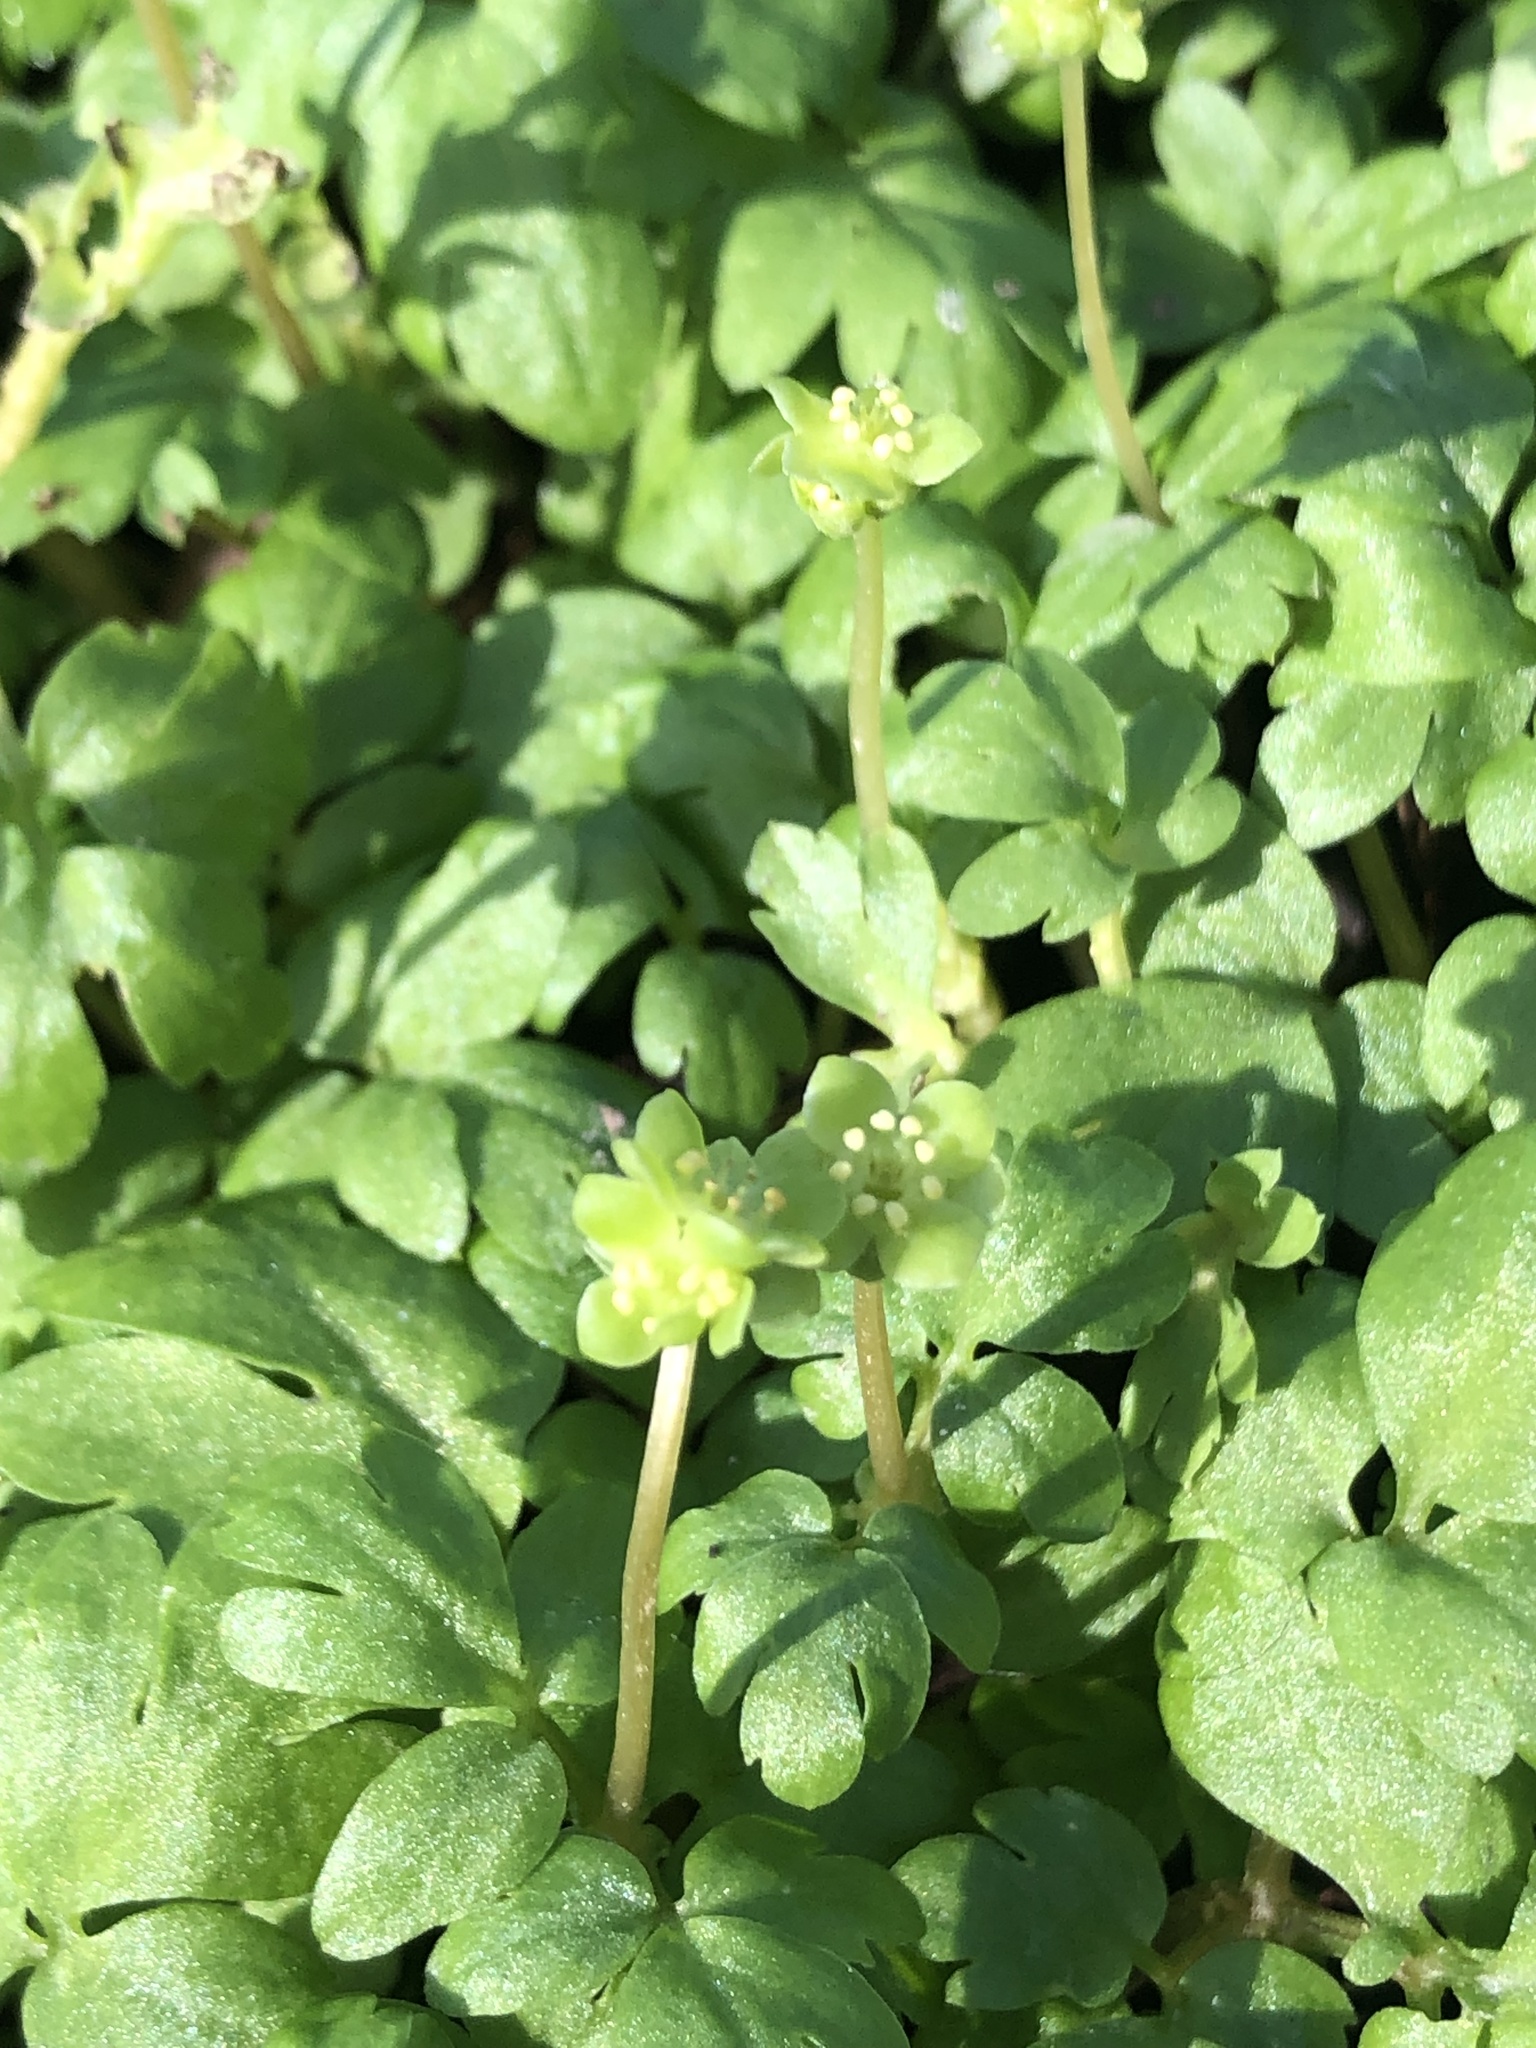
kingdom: Plantae
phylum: Tracheophyta
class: Magnoliopsida
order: Dipsacales
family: Viburnaceae
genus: Adoxa
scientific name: Adoxa moschatellina
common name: Moschatel
